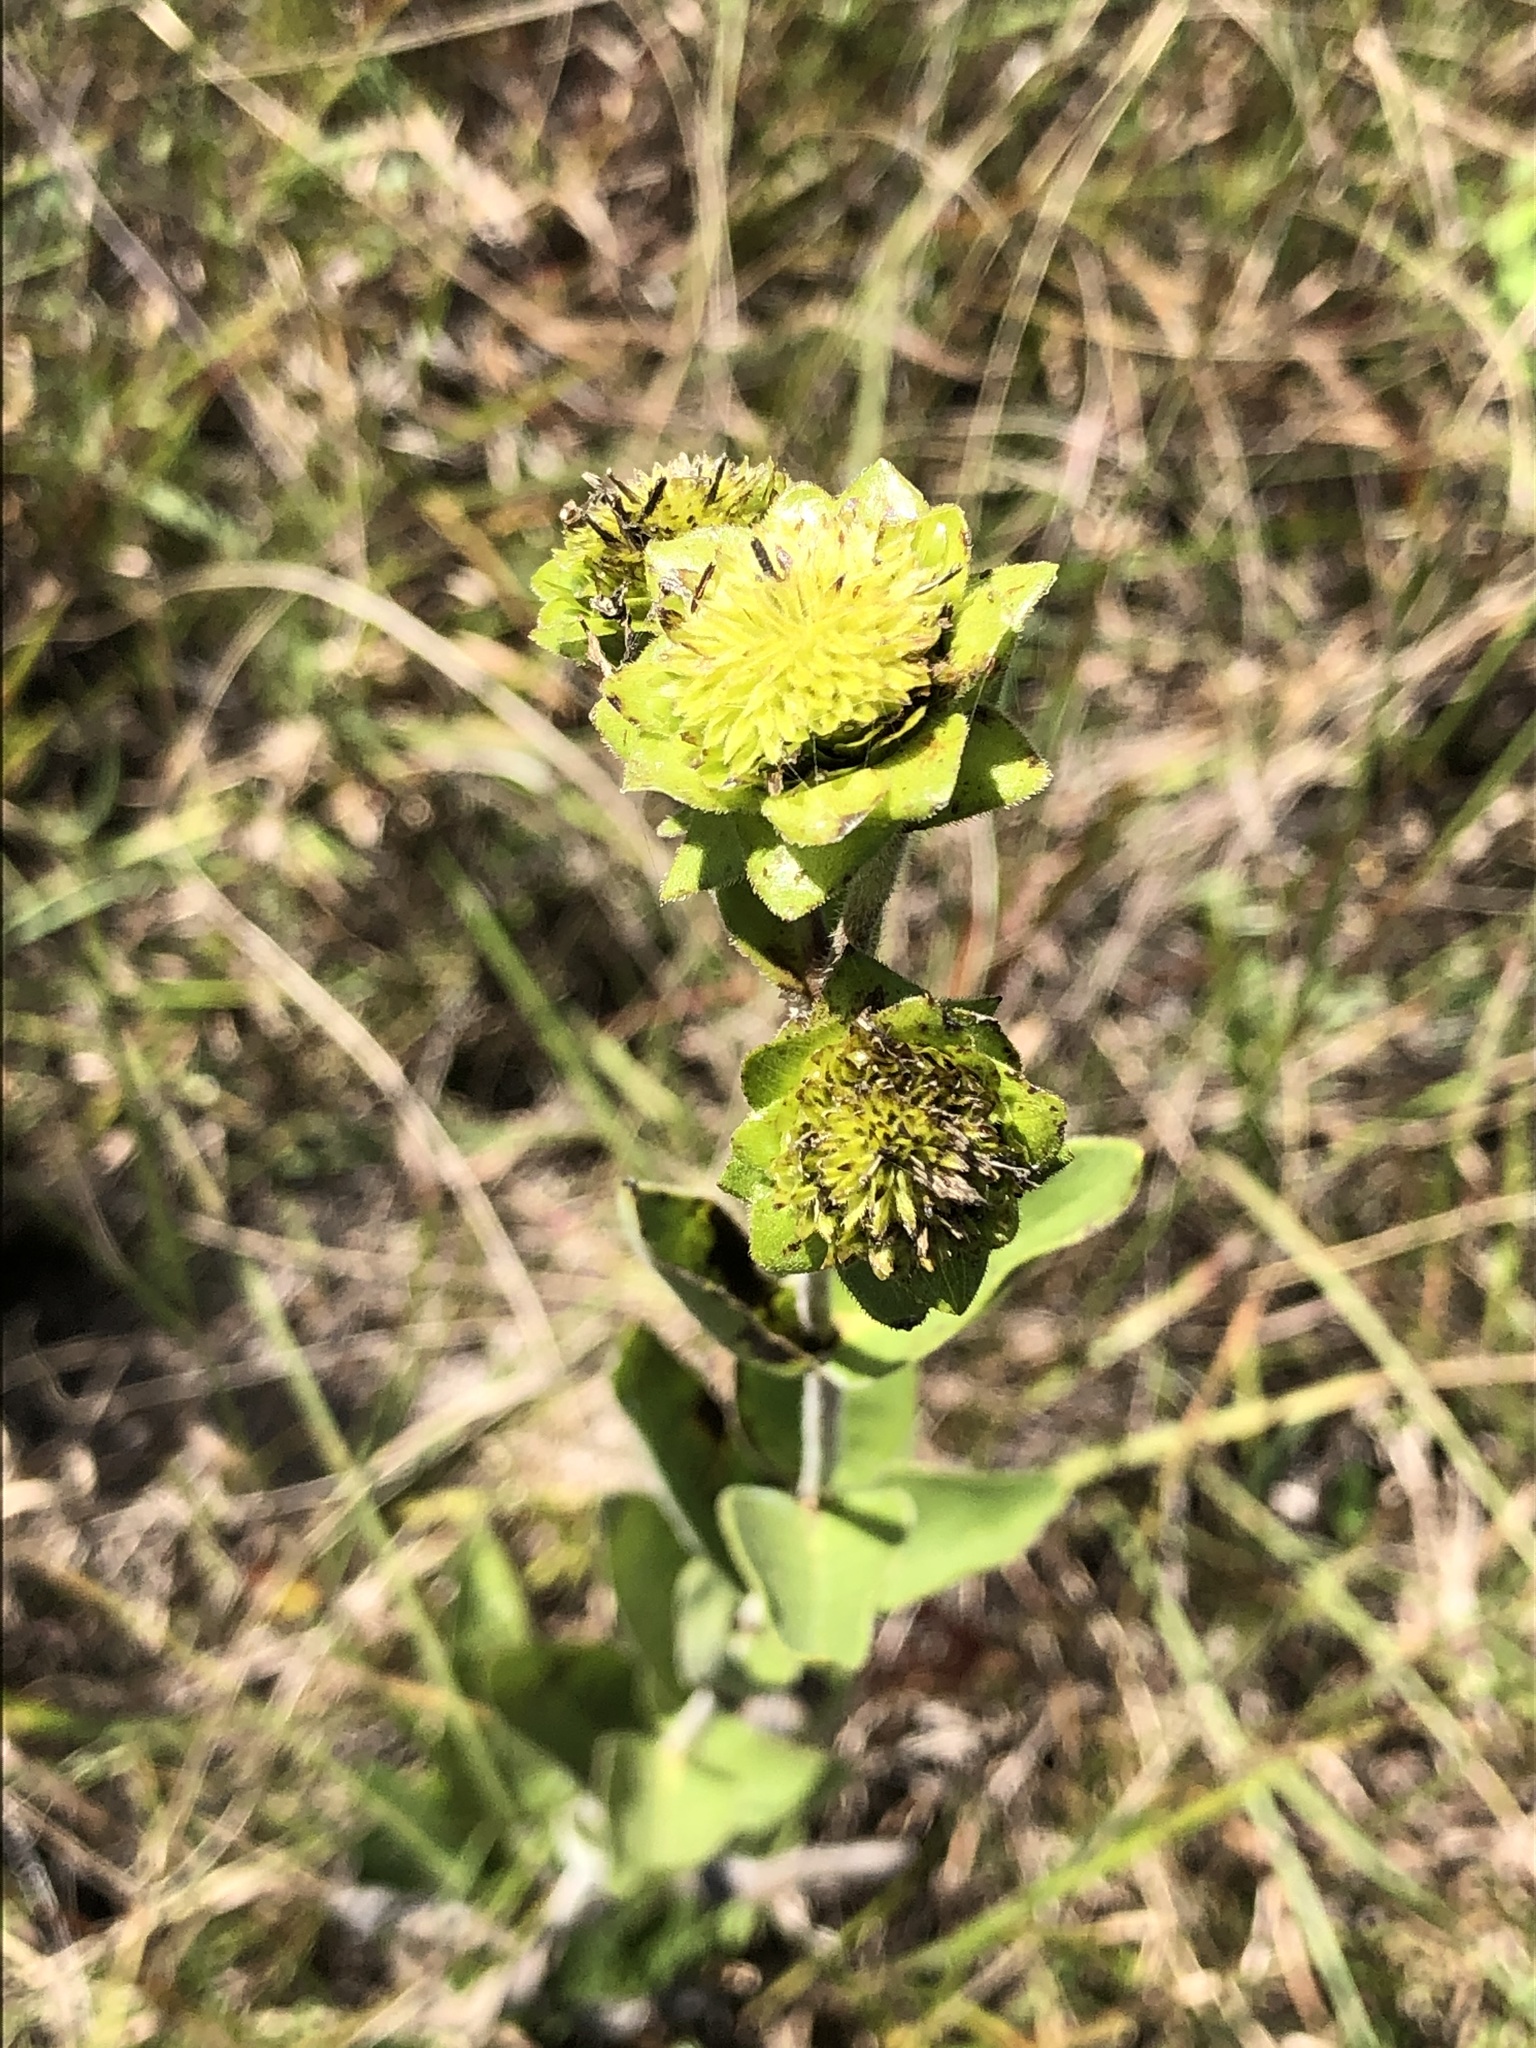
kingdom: Plantae
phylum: Tracheophyta
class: Magnoliopsida
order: Asterales
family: Asteraceae
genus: Silphium
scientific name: Silphium integrifolium
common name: Whole-leaf rosinweed
